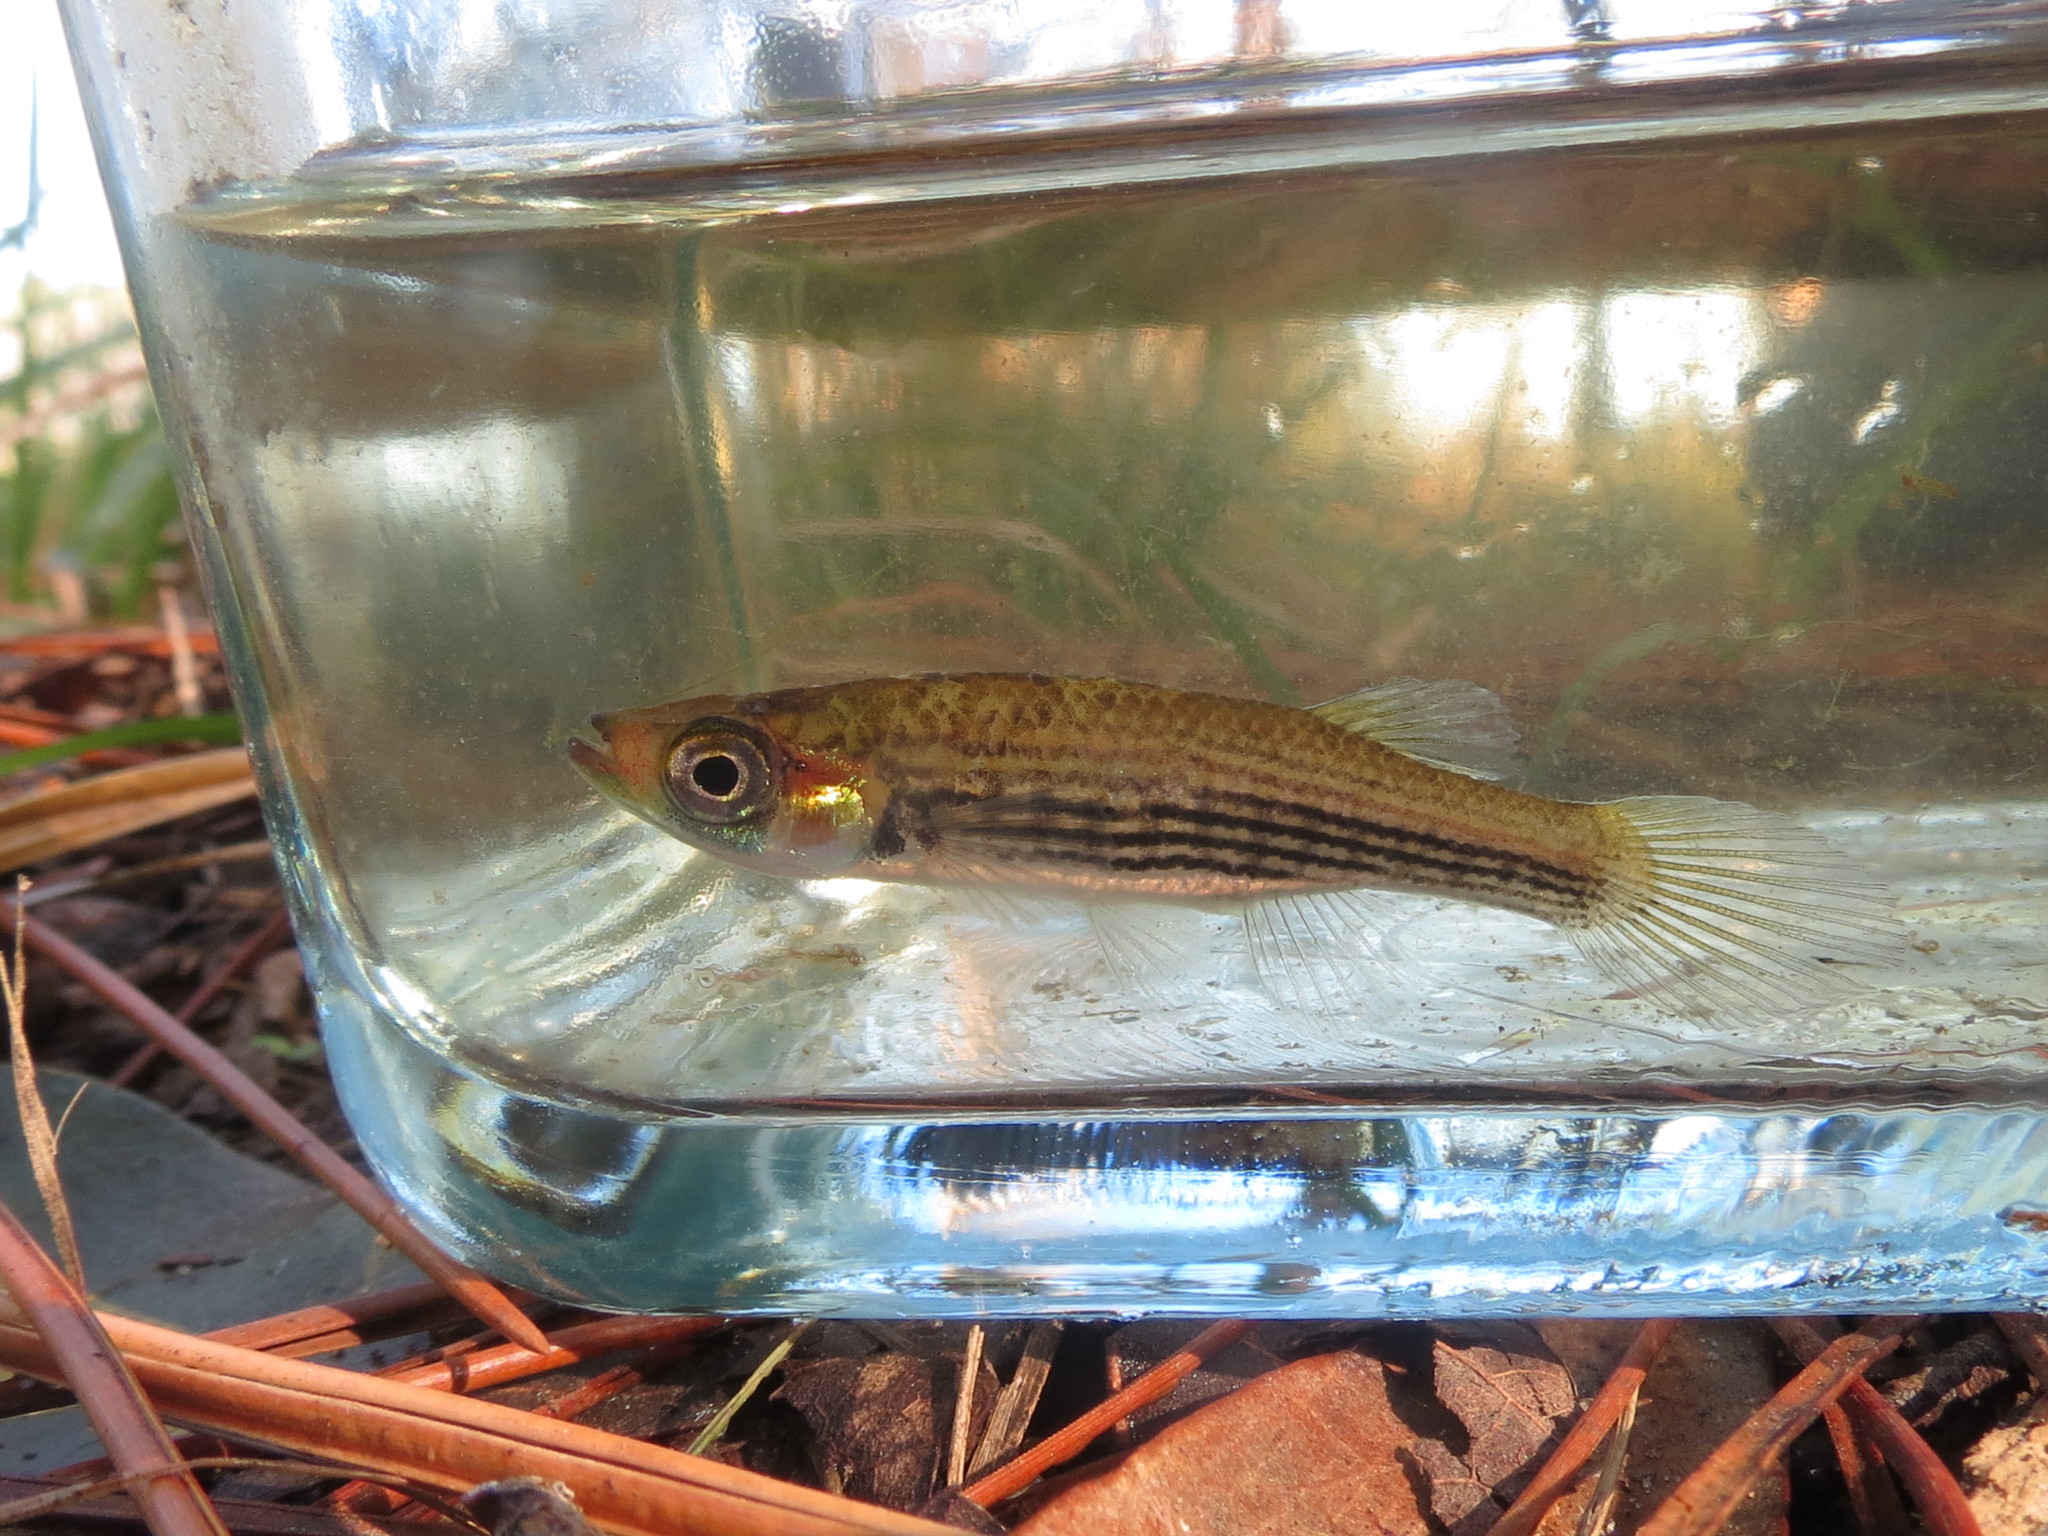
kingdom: Animalia
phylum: Chordata
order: Cyprinodontiformes
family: Fundulidae
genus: Fundulus
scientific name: Fundulus lineolatus
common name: Lined topminnow
